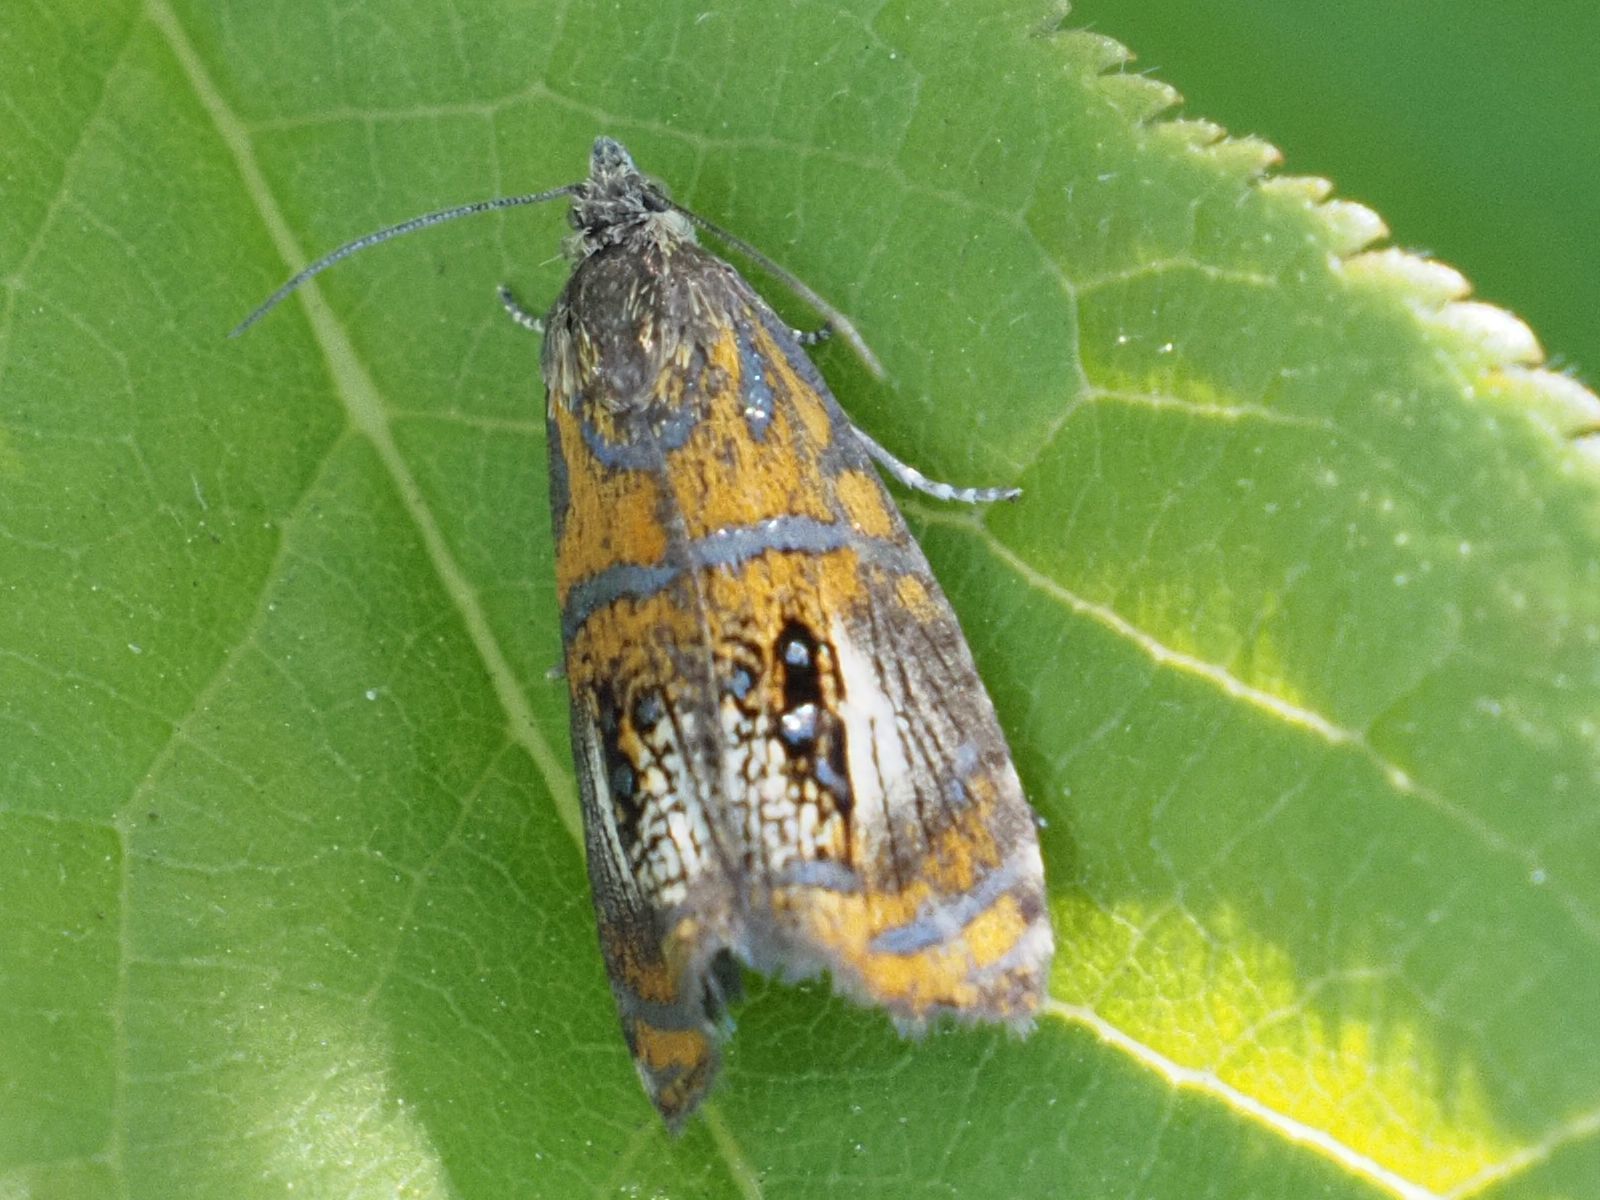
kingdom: Animalia
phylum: Arthropoda
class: Insecta
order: Lepidoptera
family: Tortricidae
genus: Olethreutes
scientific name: Olethreutes arcuella
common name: Arched marble
